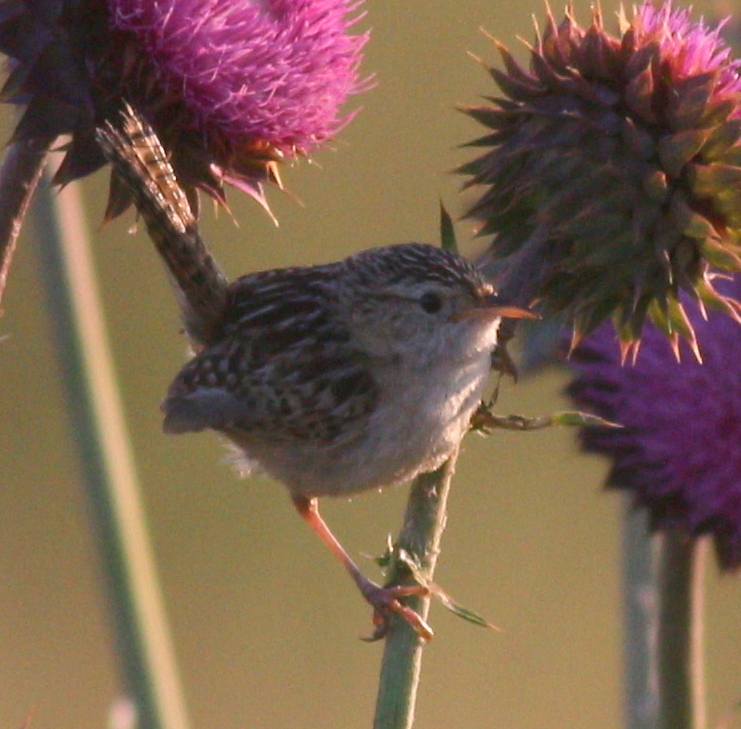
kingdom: Animalia
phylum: Chordata
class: Aves
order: Passeriformes
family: Troglodytidae
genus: Cistothorus
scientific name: Cistothorus platensis
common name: Sedge wren
